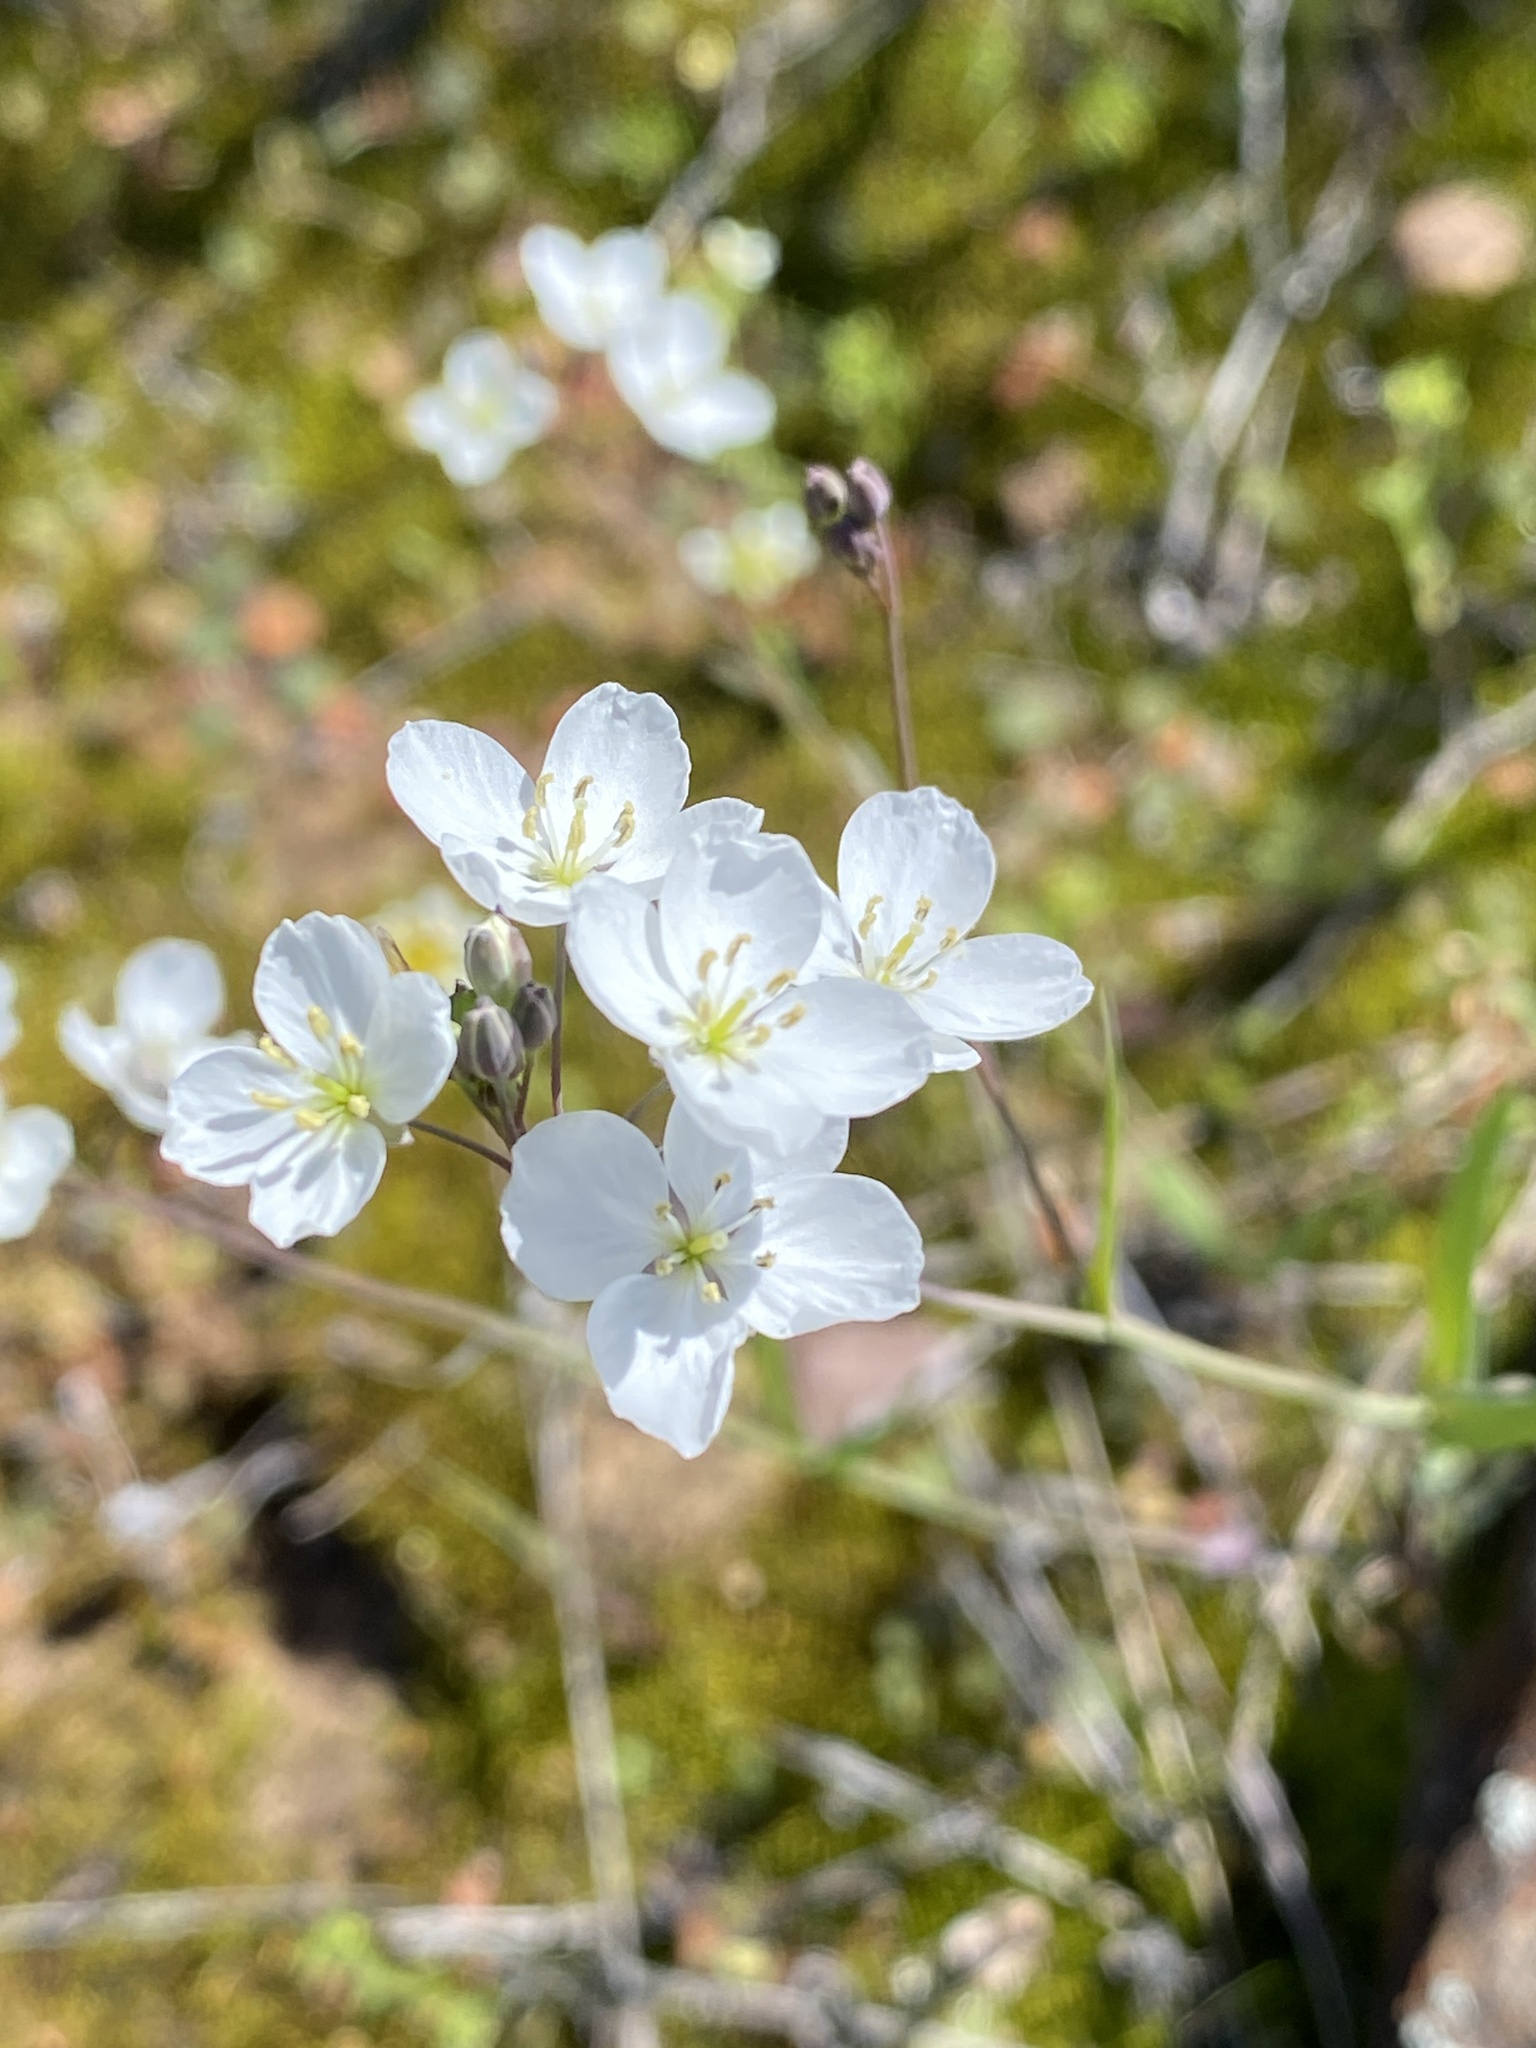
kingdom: Plantae
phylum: Tracheophyta
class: Magnoliopsida
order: Brassicales
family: Brassicaceae
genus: Heliophila
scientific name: Heliophila amplexicaulis
